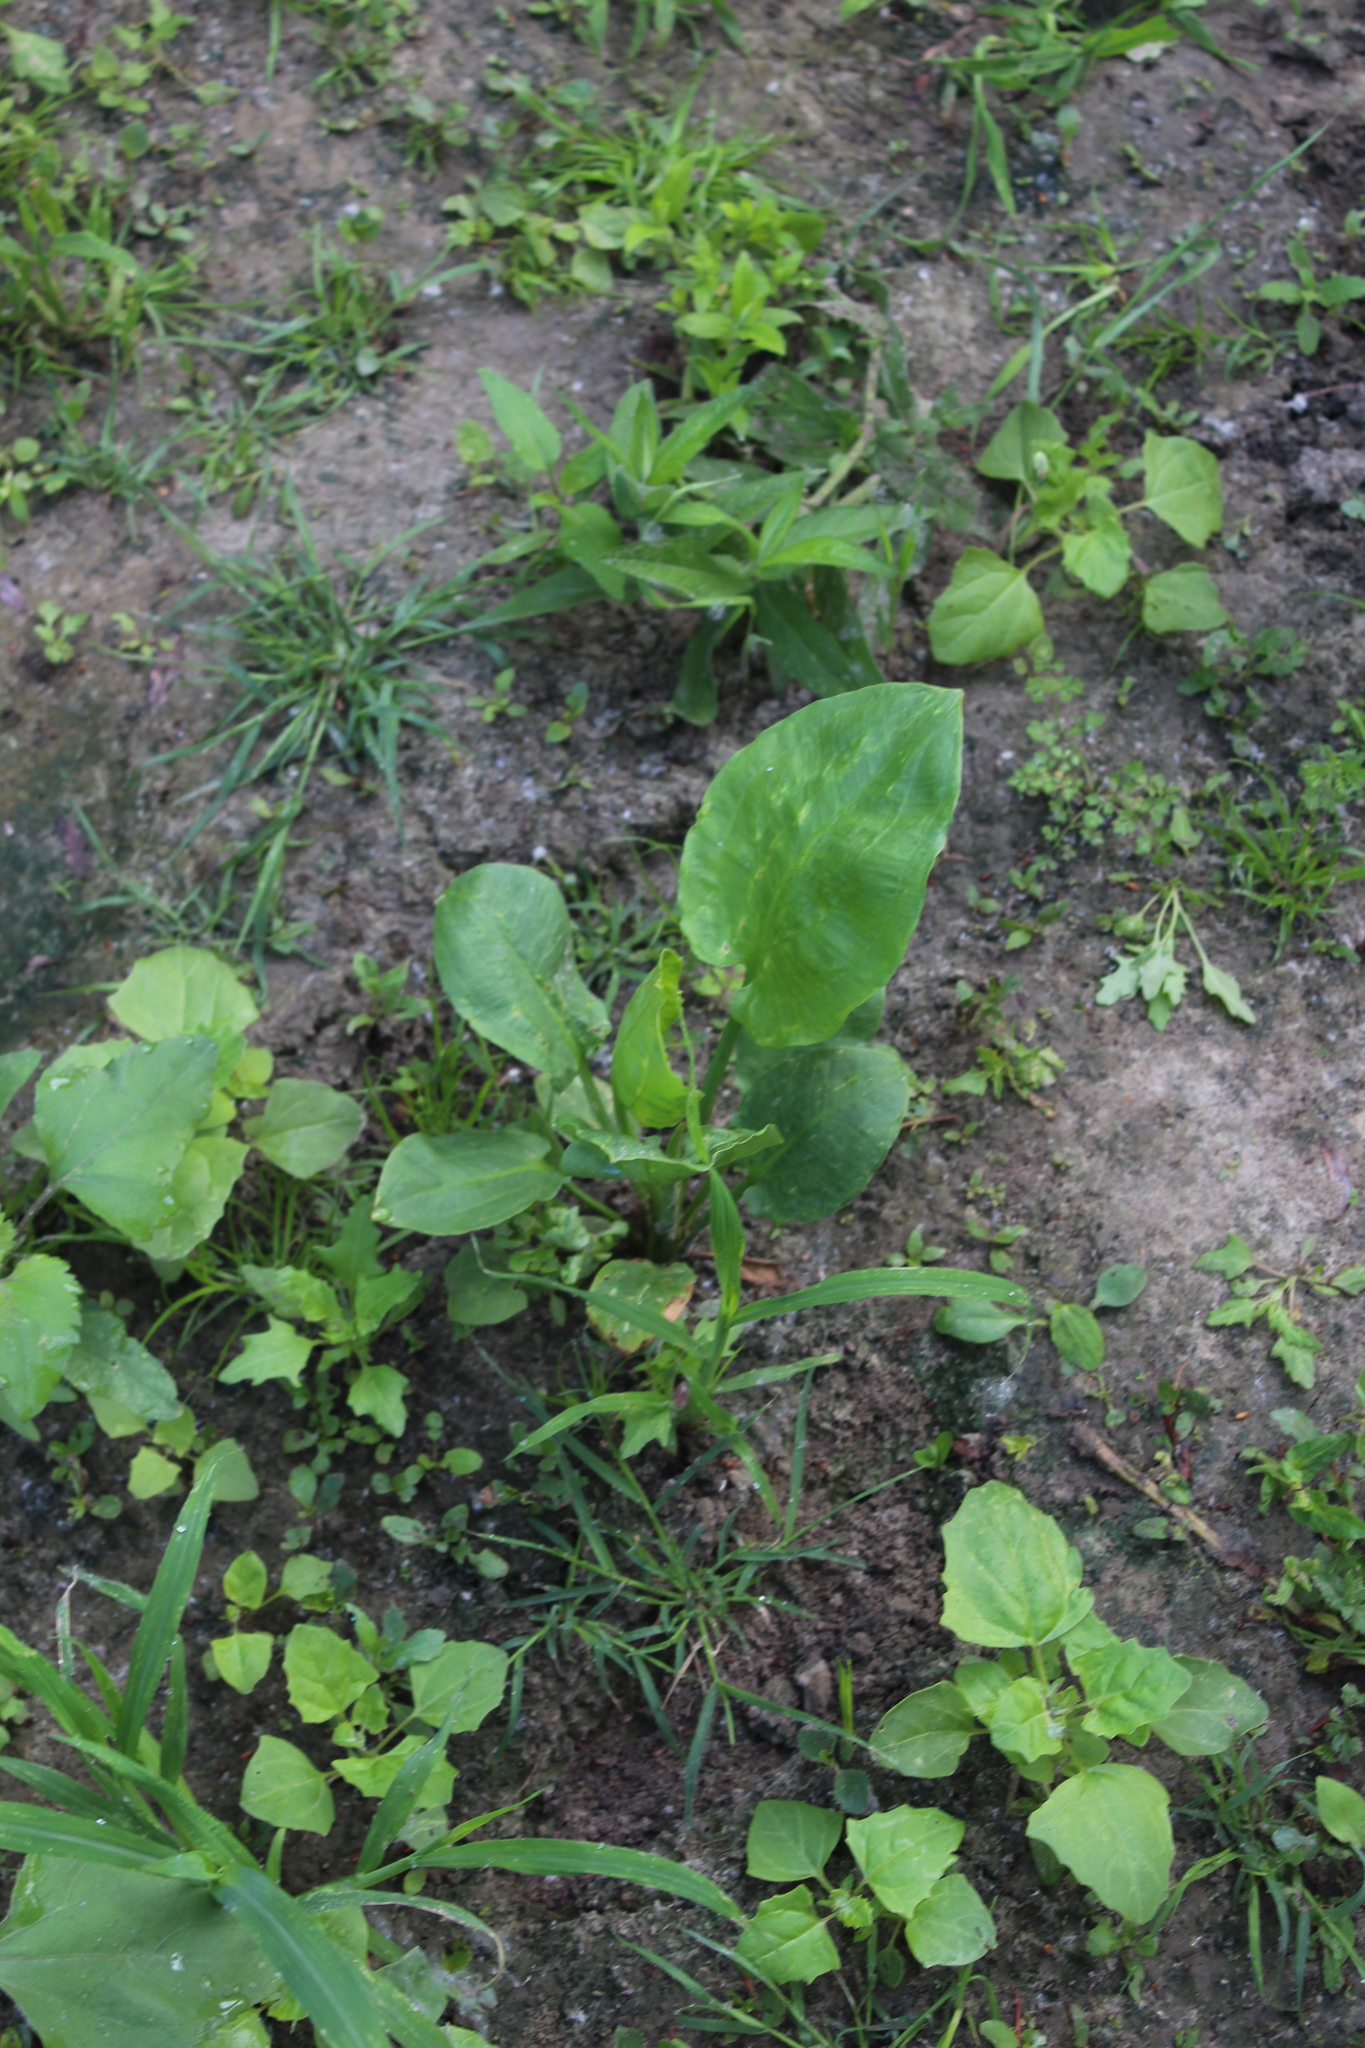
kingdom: Plantae
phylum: Tracheophyta
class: Liliopsida
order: Alismatales
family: Alismataceae
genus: Alisma
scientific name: Alisma plantago-aquatica
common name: Water-plantain
